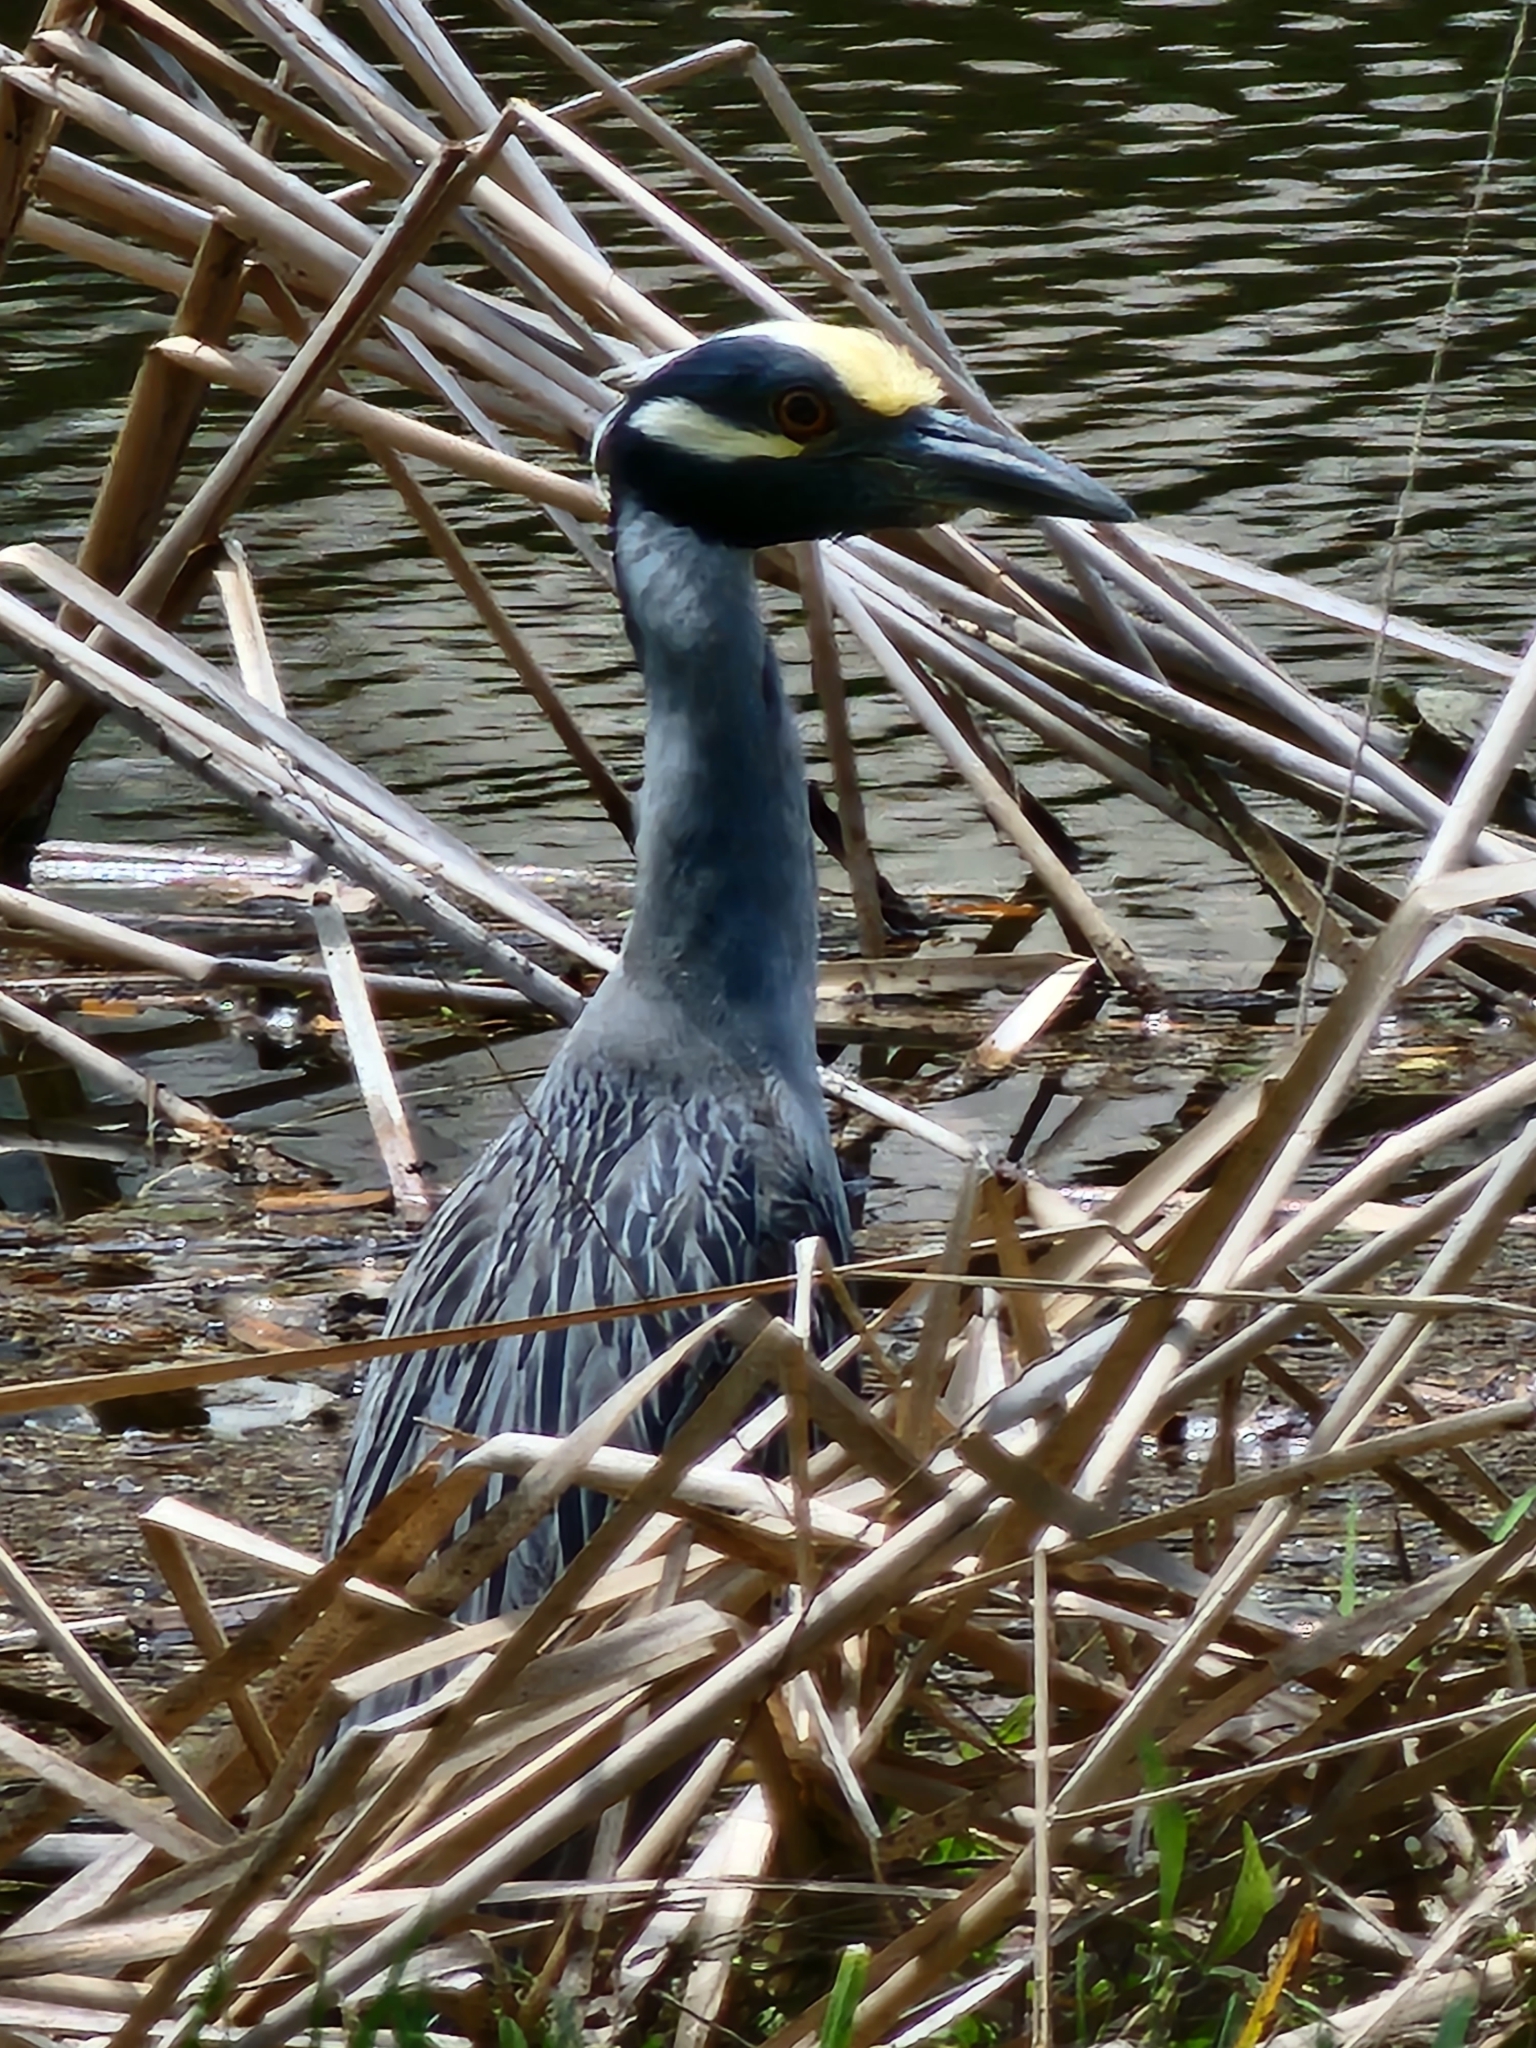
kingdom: Animalia
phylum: Chordata
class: Aves
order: Pelecaniformes
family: Ardeidae
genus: Nyctanassa
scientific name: Nyctanassa violacea
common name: Yellow-crowned night heron
